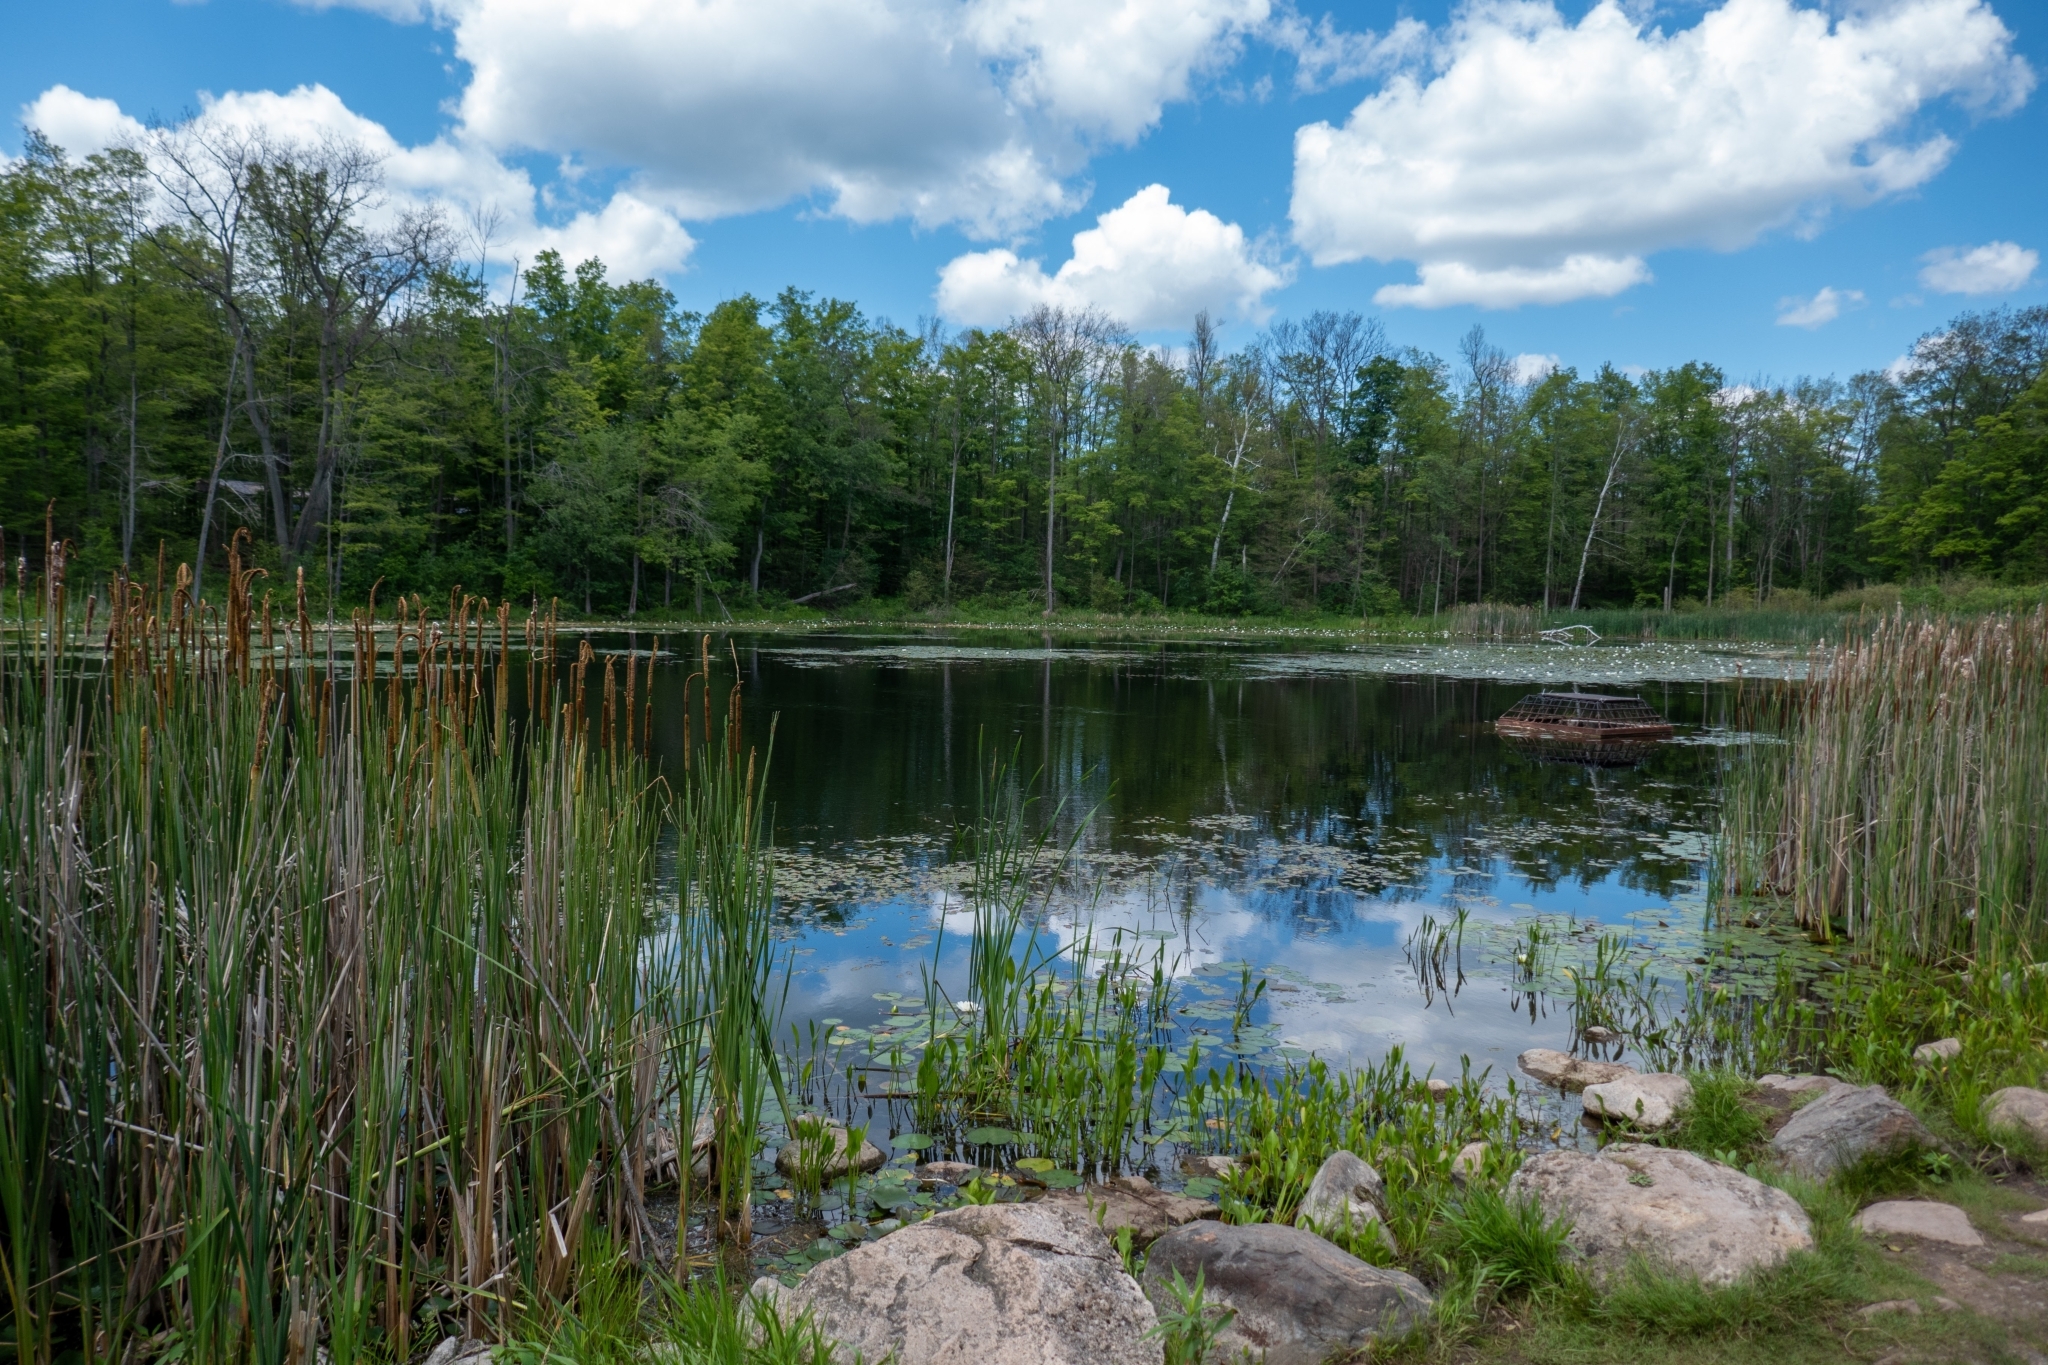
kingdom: Plantae
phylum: Tracheophyta
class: Magnoliopsida
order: Nymphaeales
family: Nymphaeaceae
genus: Nymphaea
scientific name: Nymphaea odorata
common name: Fragrant water-lily
